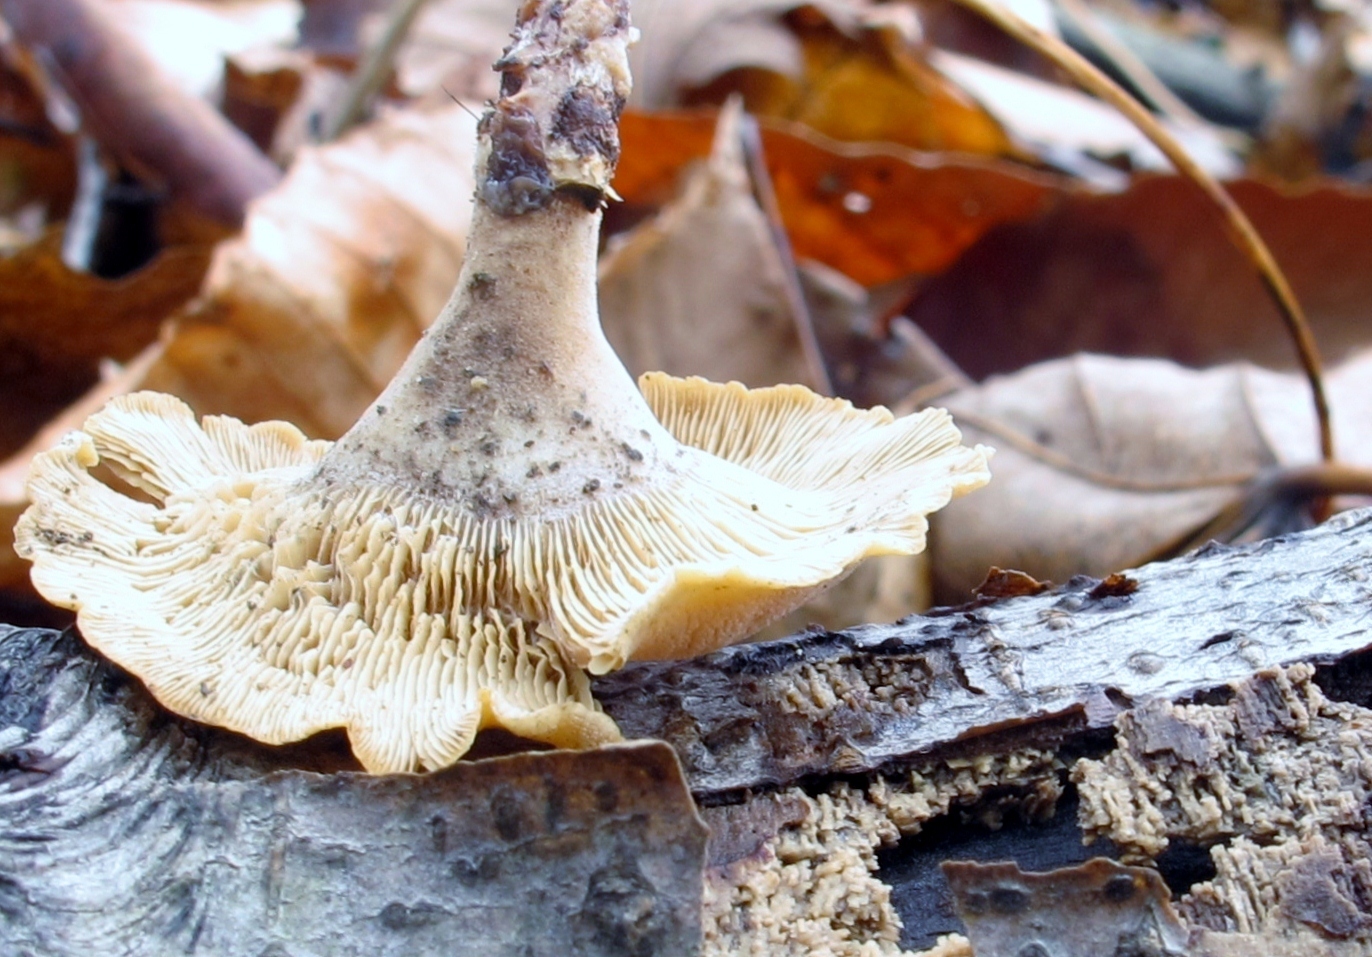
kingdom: Fungi
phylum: Basidiomycota
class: Agaricomycetes
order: Agaricales
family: Mycenaceae
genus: Panellus
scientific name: Panellus stipticus
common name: Bitter oysterling
